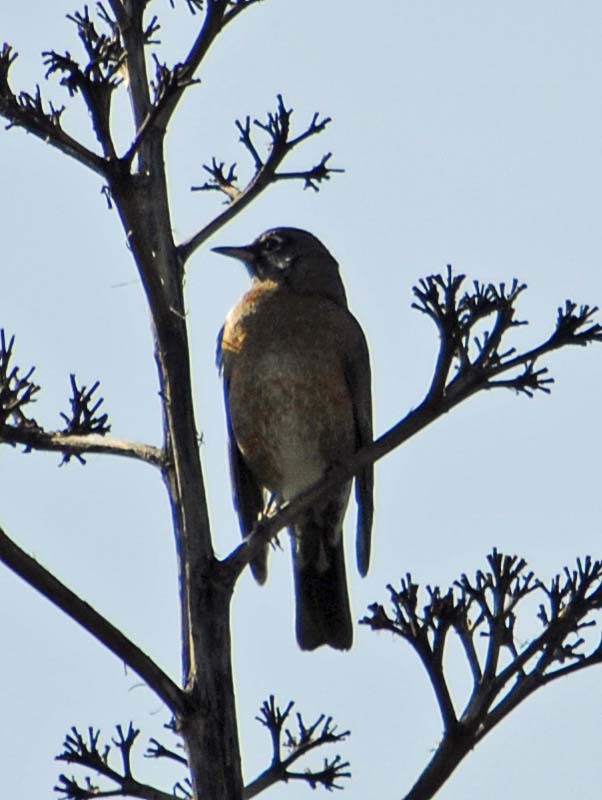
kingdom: Animalia
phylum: Chordata
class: Aves
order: Passeriformes
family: Turdidae
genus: Turdus
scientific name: Turdus migratorius
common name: American robin
